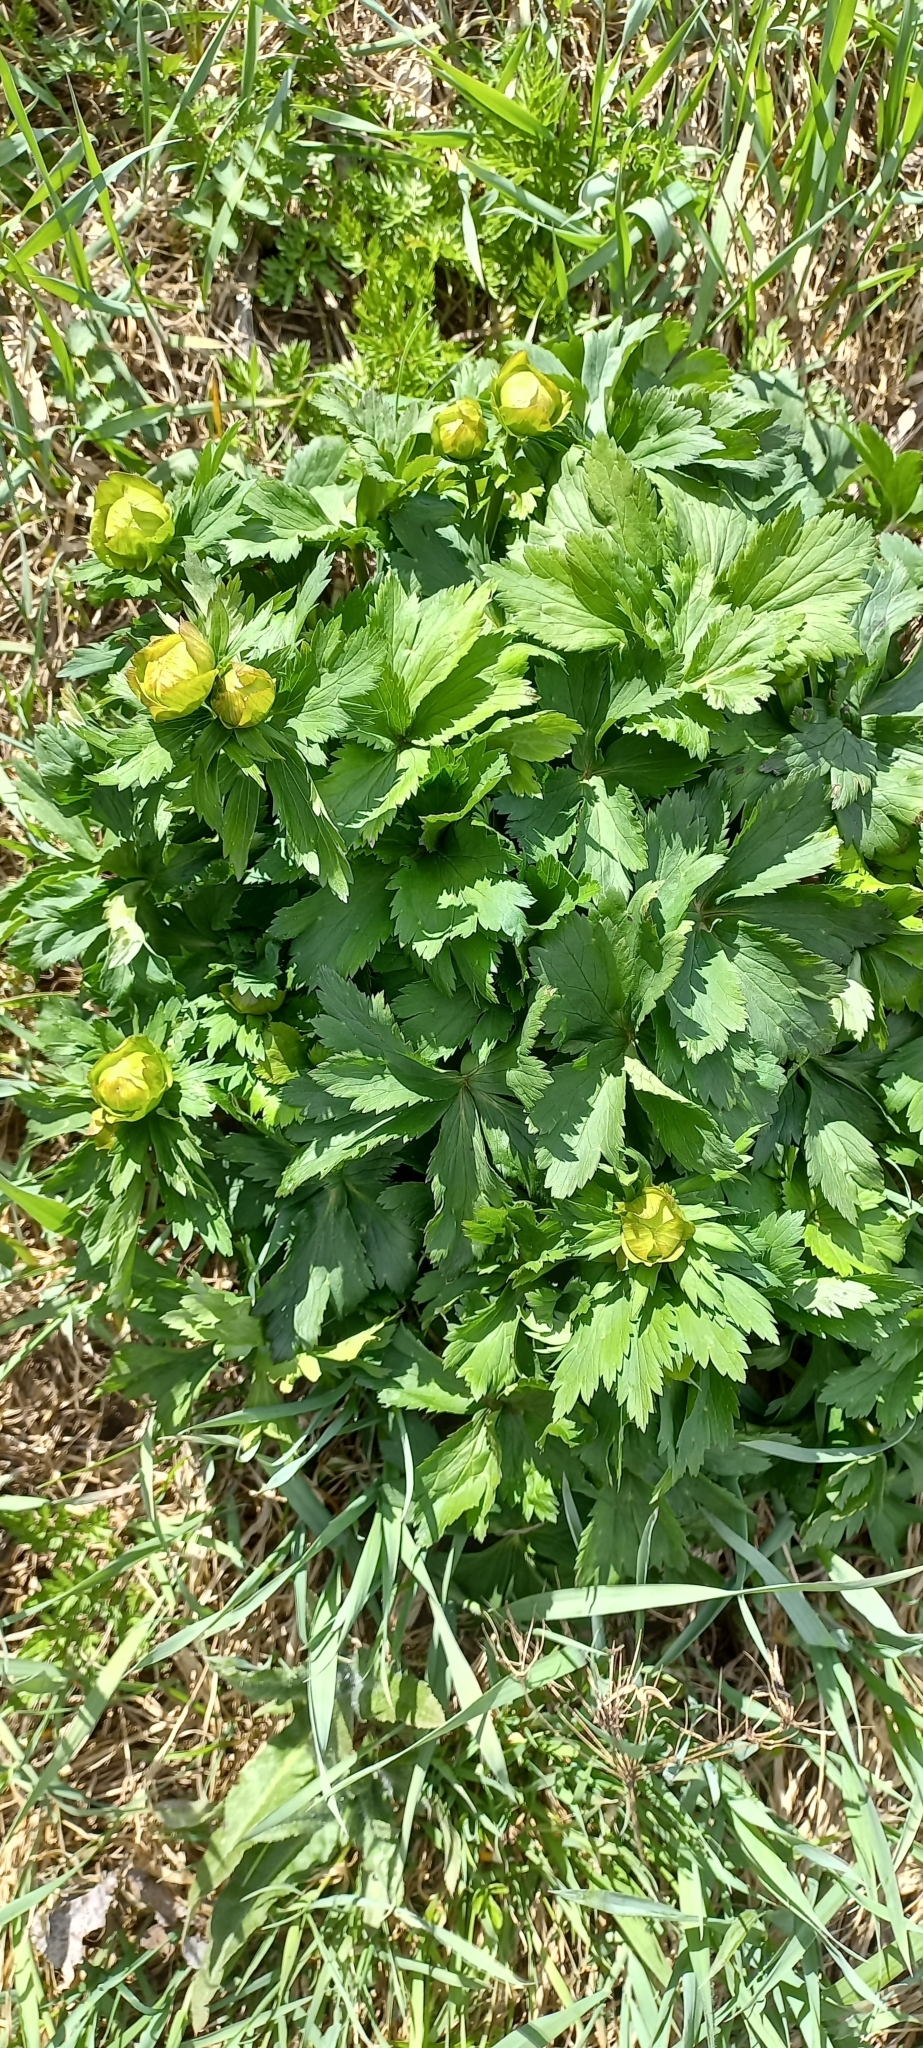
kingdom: Plantae
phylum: Tracheophyta
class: Magnoliopsida
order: Ranunculales
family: Ranunculaceae
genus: Trollius
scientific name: Trollius europaeus
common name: European globeflower
